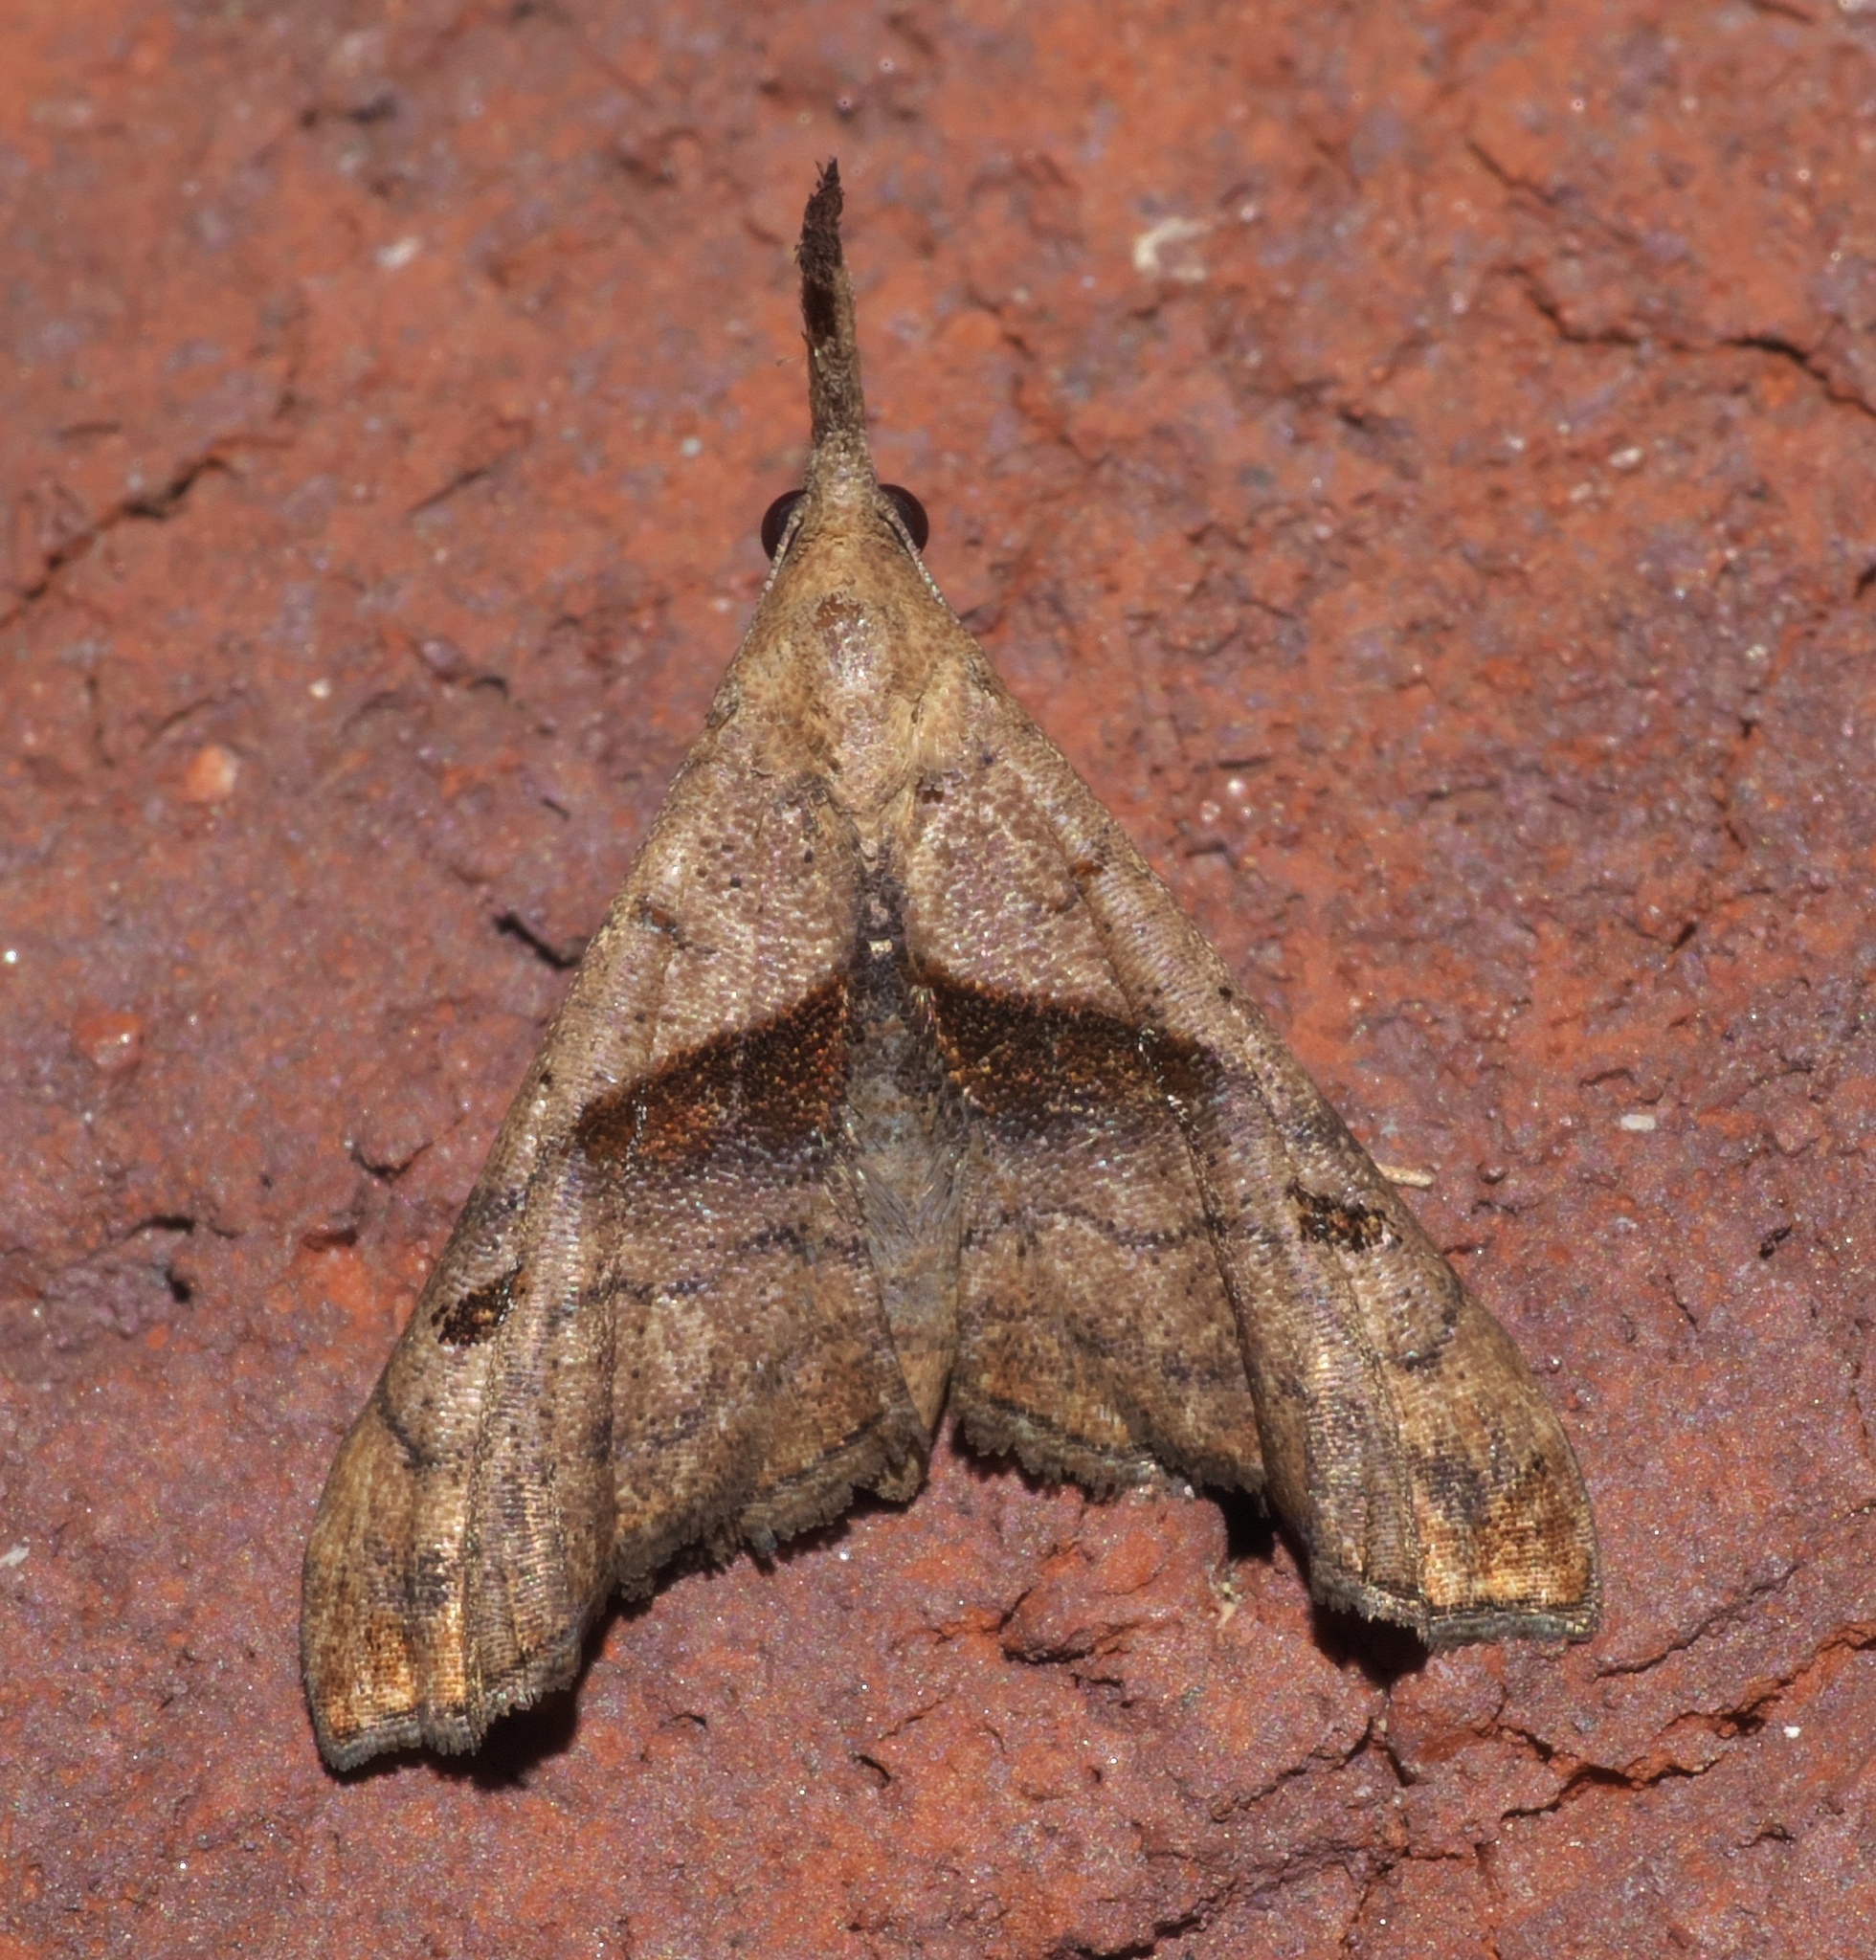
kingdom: Animalia
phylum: Arthropoda
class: Insecta
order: Lepidoptera
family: Erebidae
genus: Palthis
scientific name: Palthis angulalis
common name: Dark-spotted palthis moth
